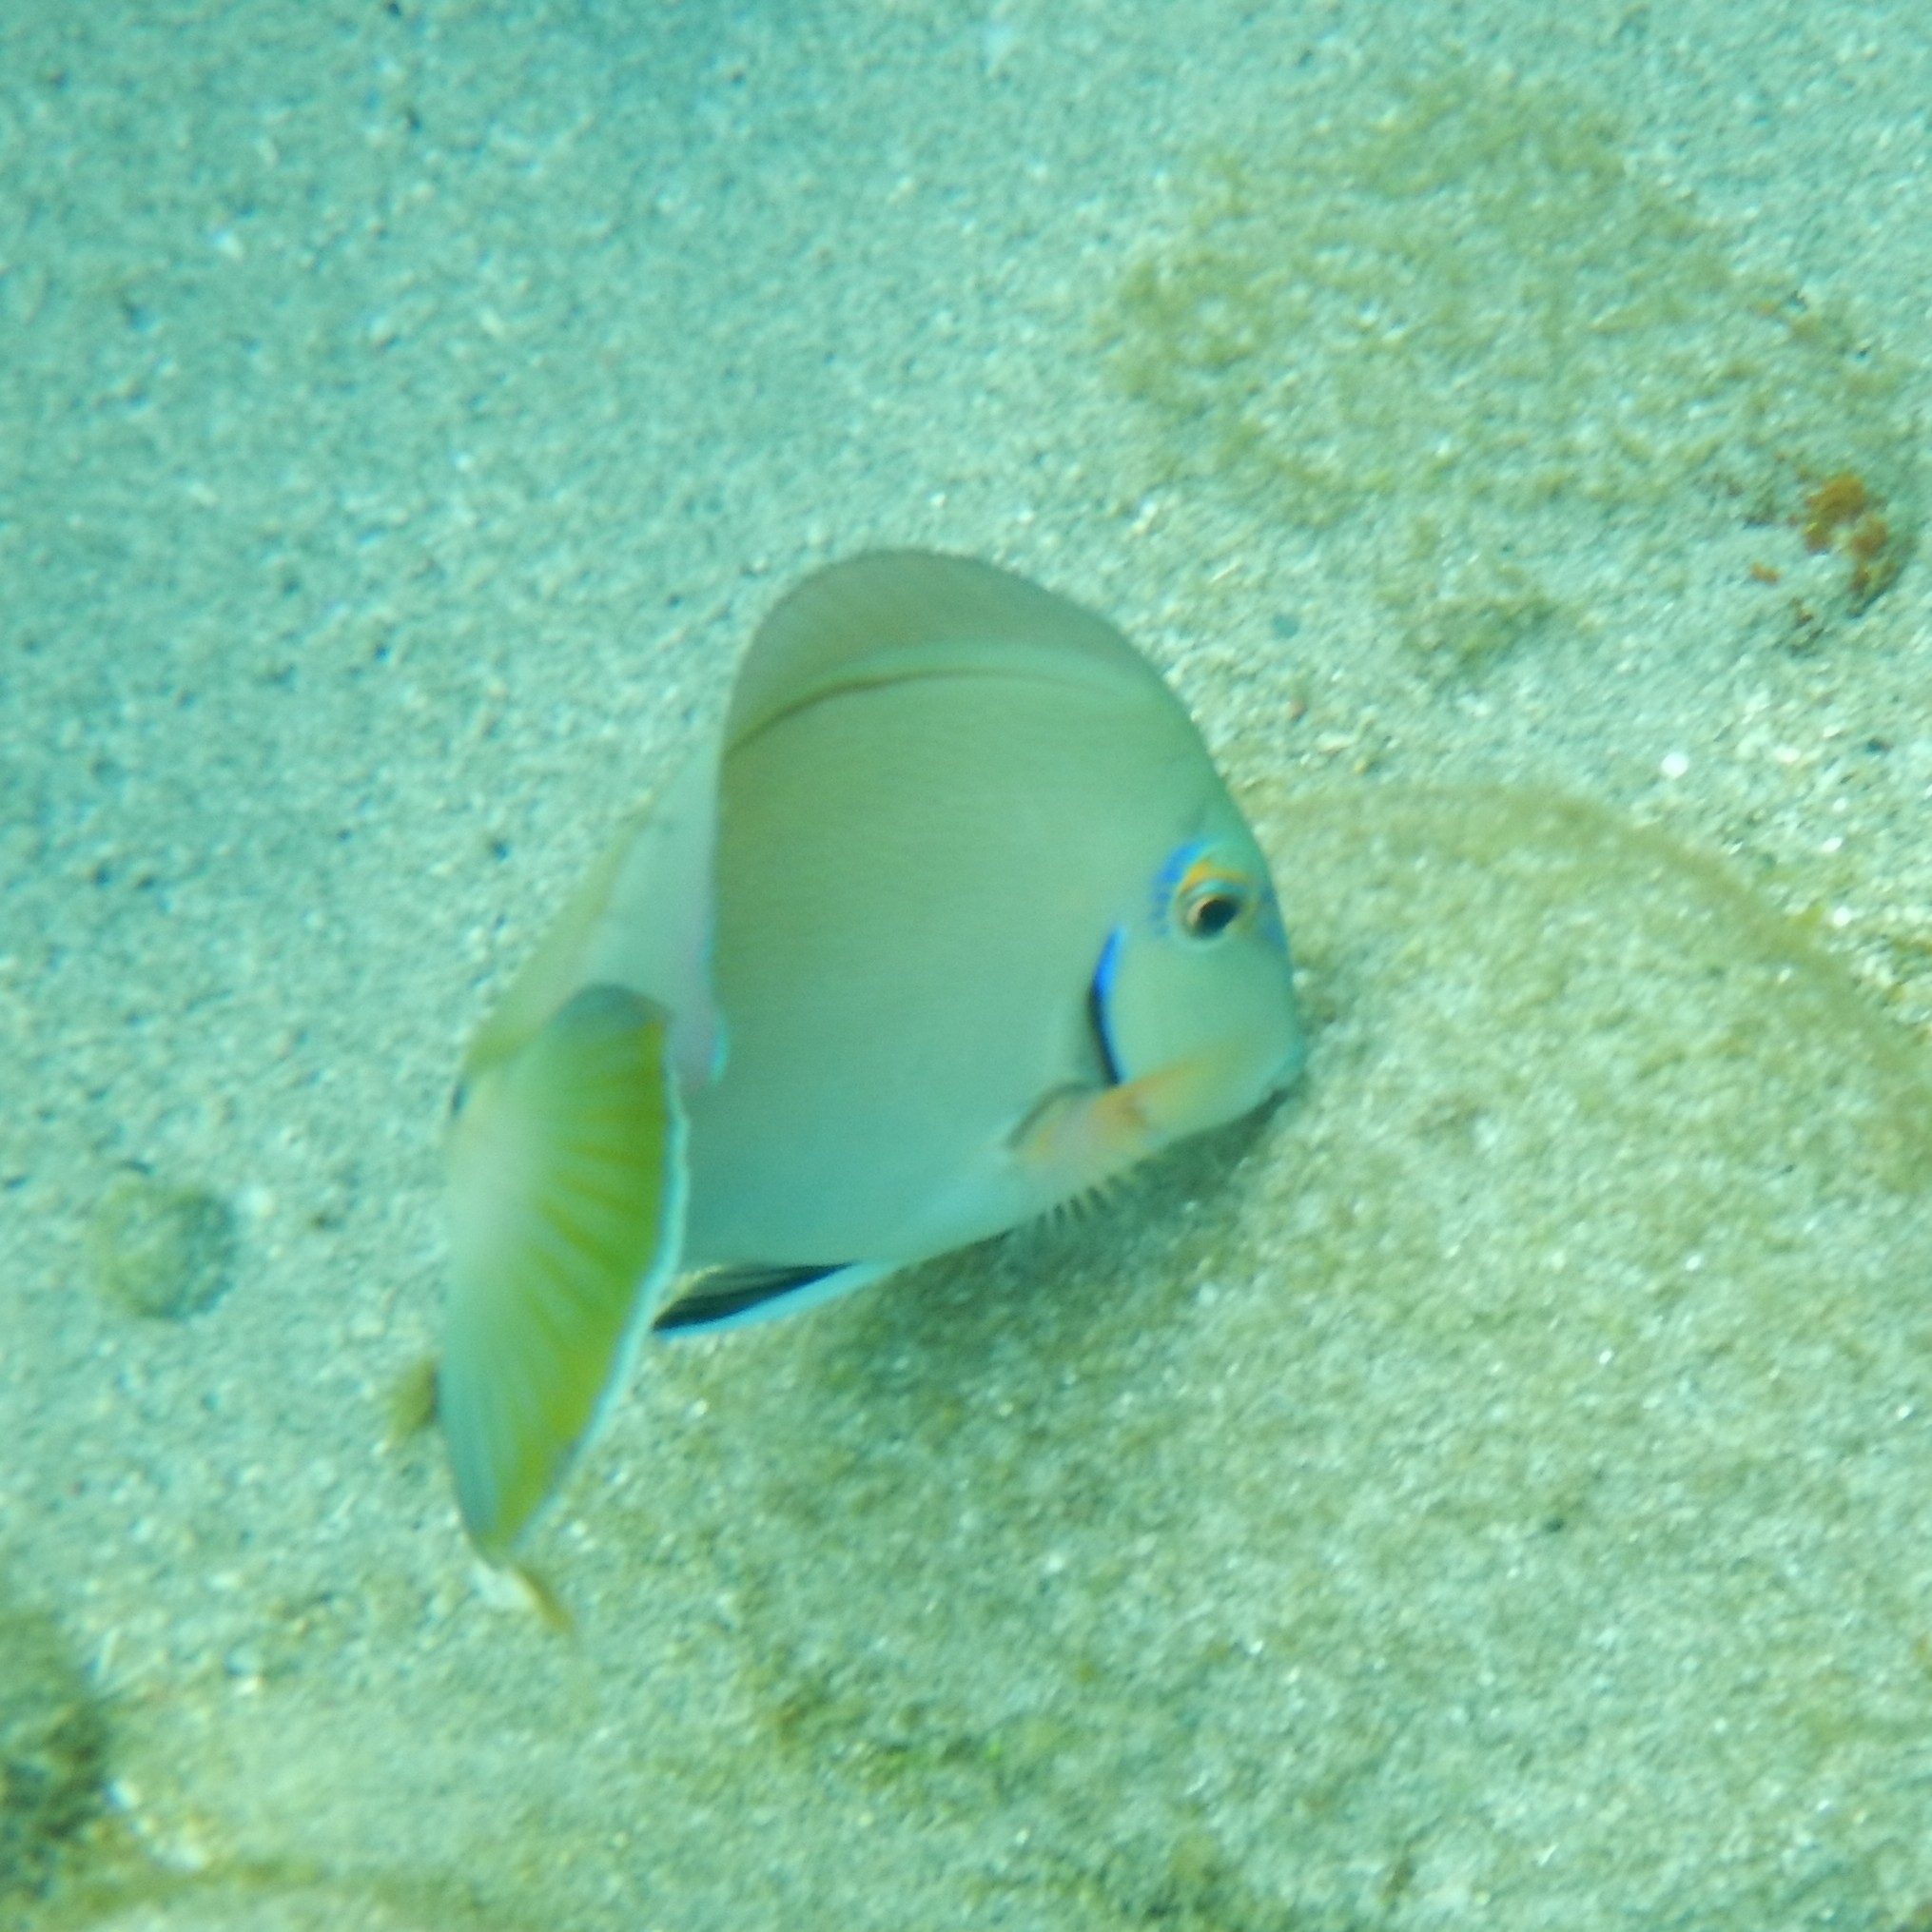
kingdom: Animalia
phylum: Chordata
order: Perciformes
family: Acanthuridae
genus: Acanthurus
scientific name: Acanthurus bahianus
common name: Ocean surgeon
